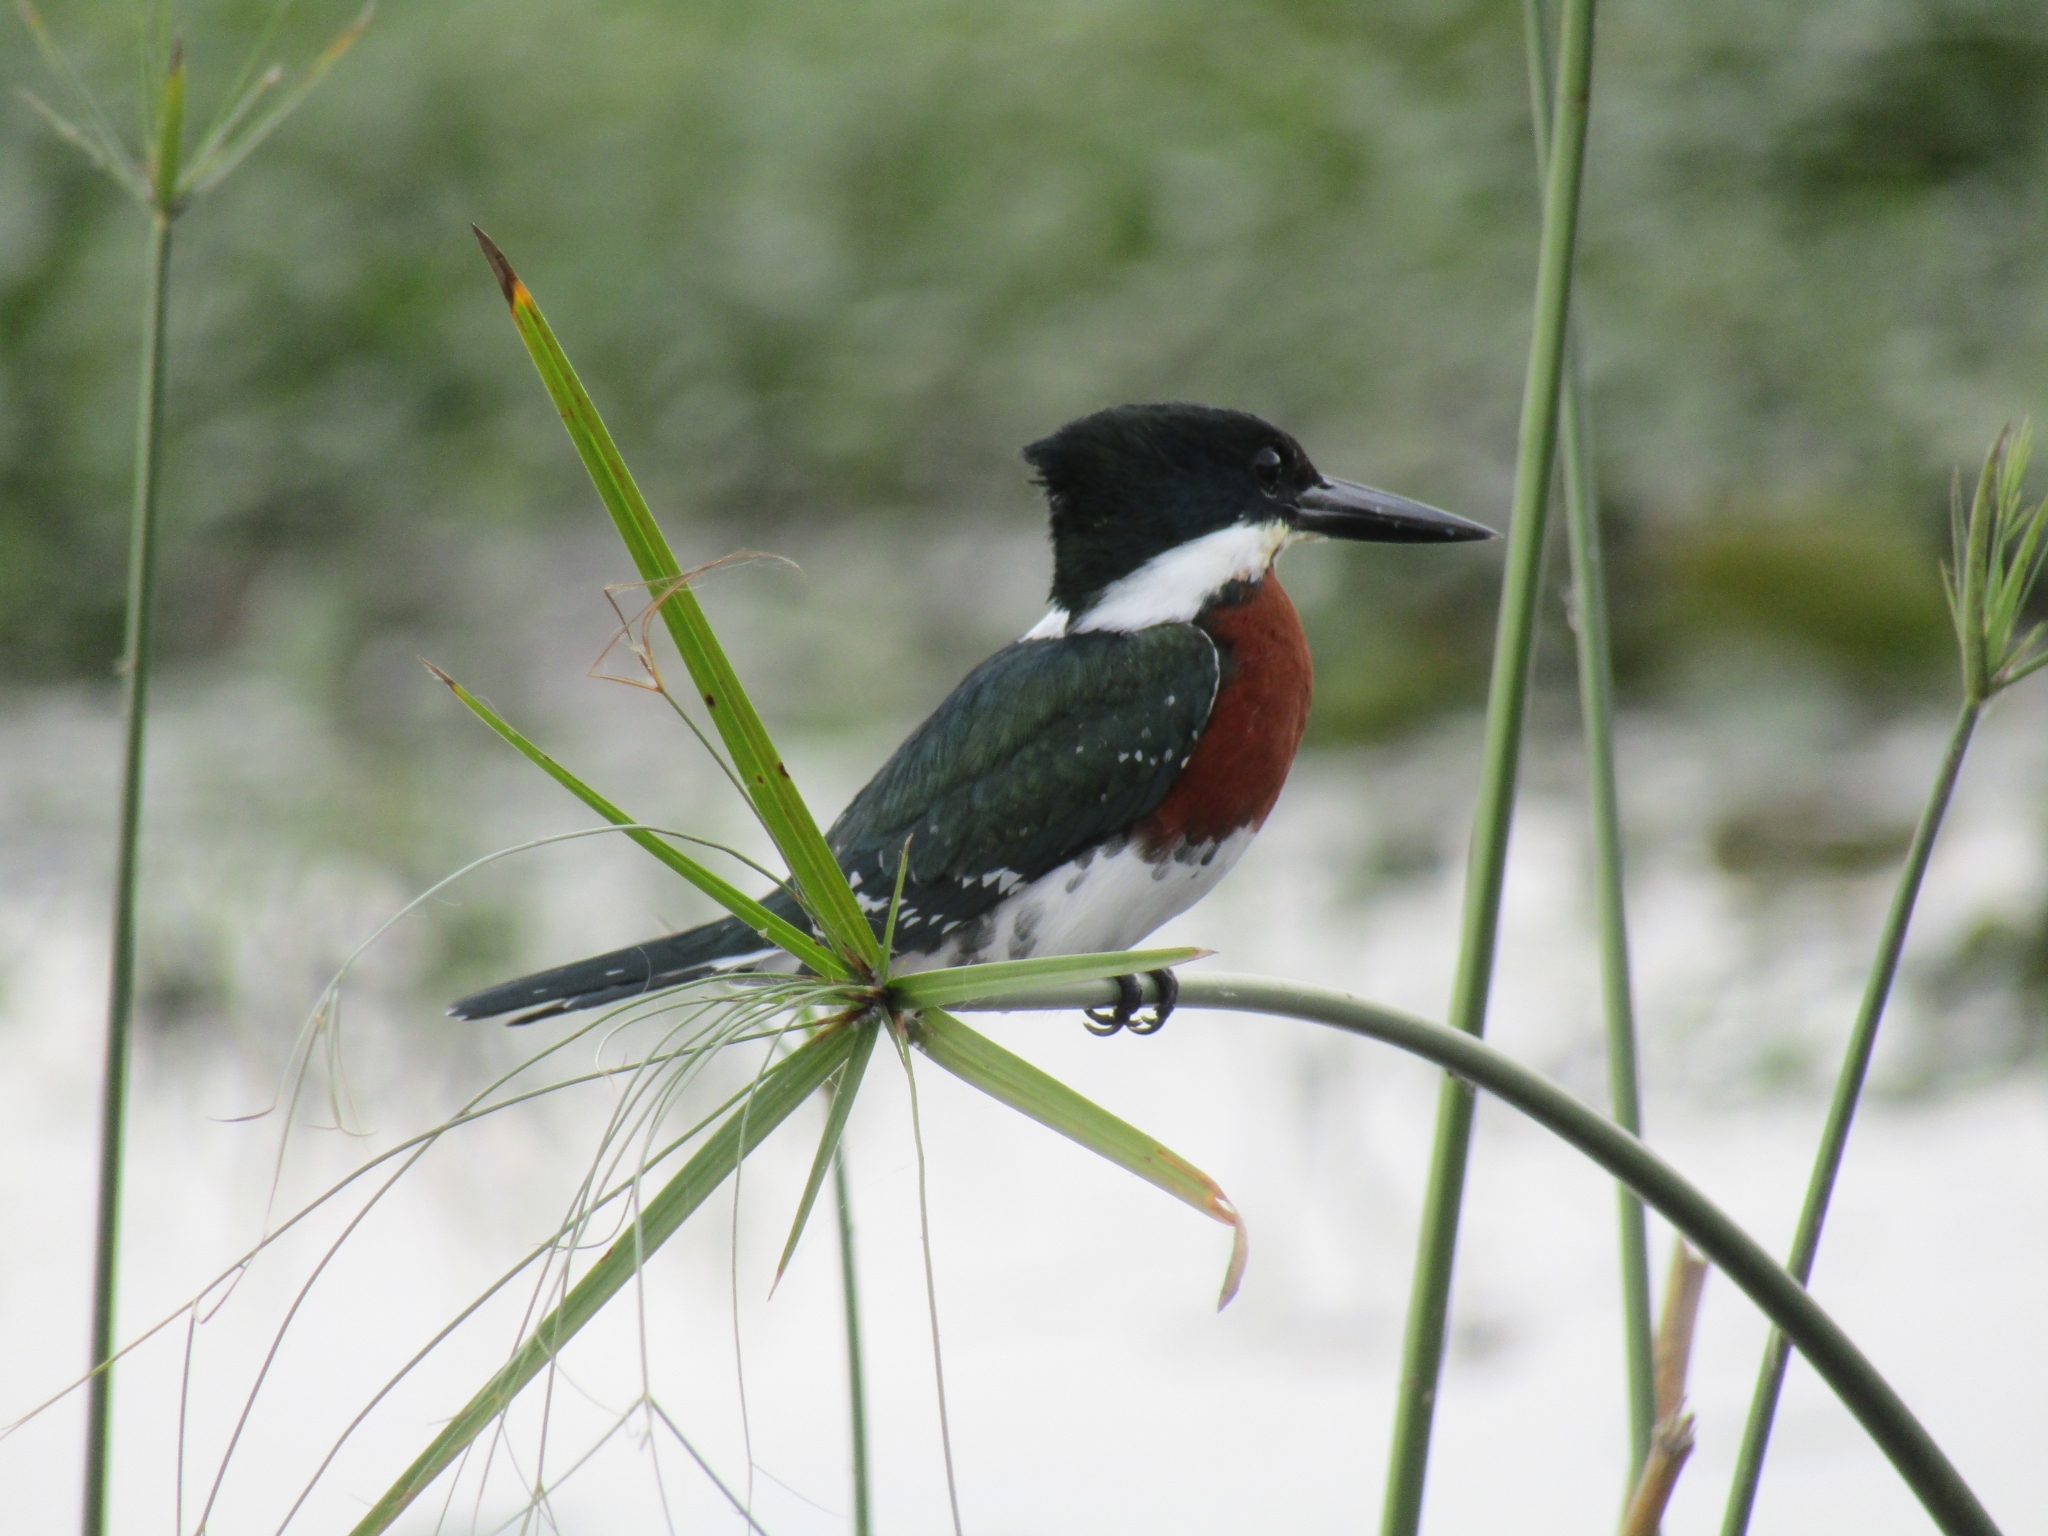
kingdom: Animalia
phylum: Chordata
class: Aves
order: Coraciiformes
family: Alcedinidae
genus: Chloroceryle
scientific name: Chloroceryle americana
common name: Green kingfisher
